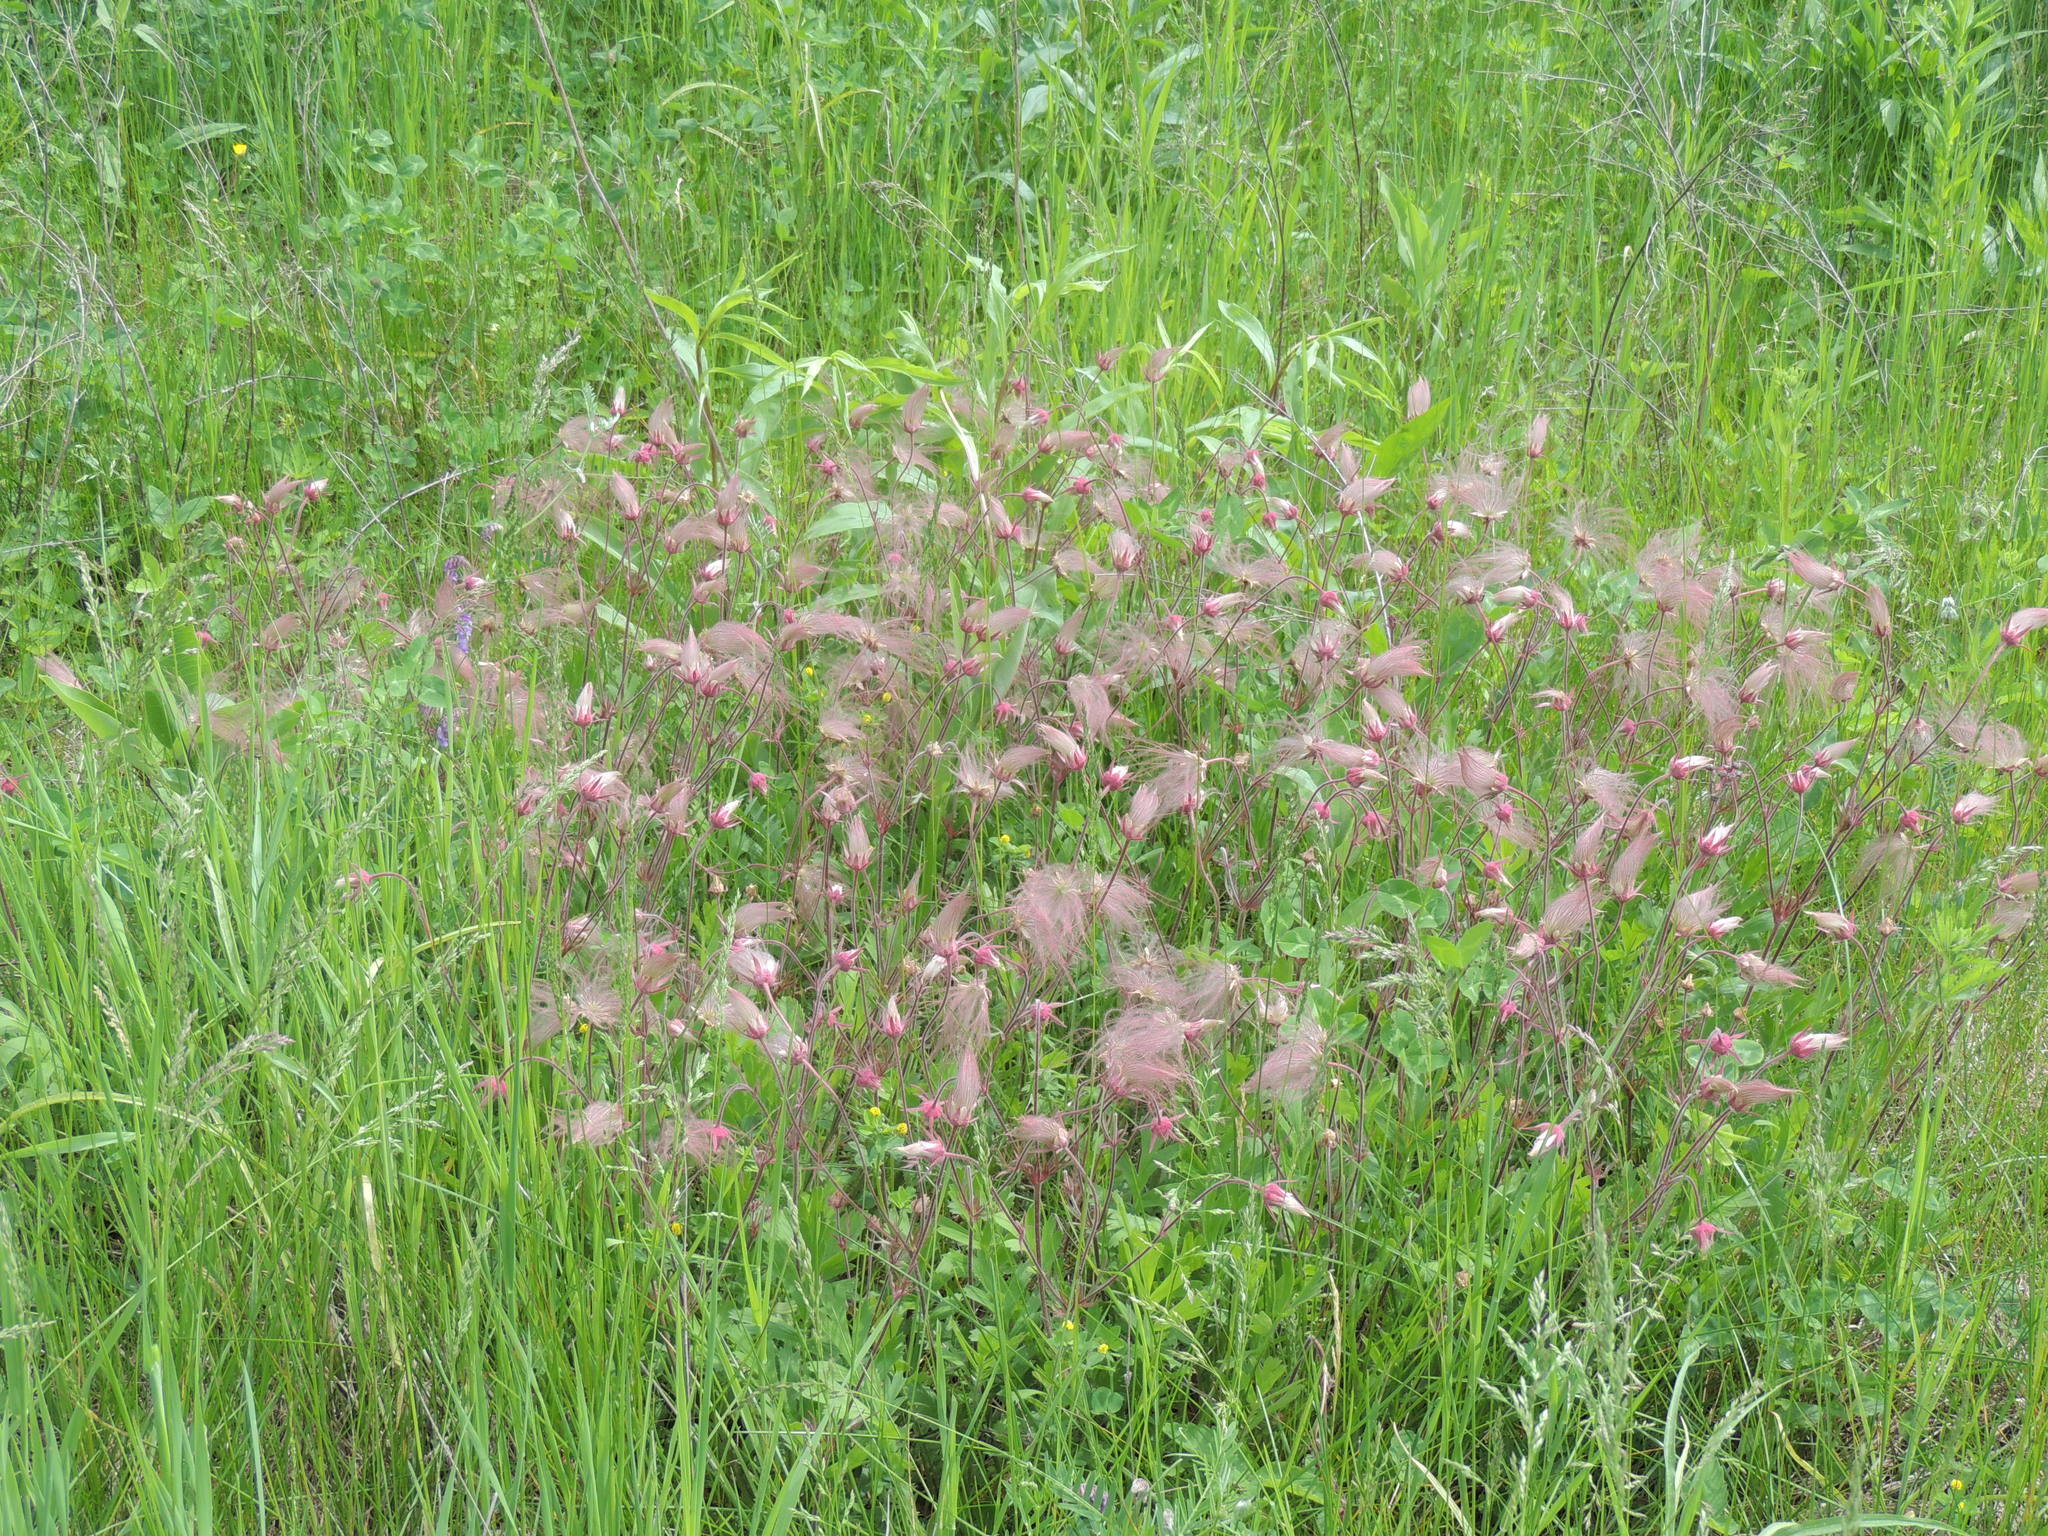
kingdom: Plantae
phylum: Tracheophyta
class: Magnoliopsida
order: Rosales
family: Rosaceae
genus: Geum
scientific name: Geum triflorum
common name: Old man's whiskers
